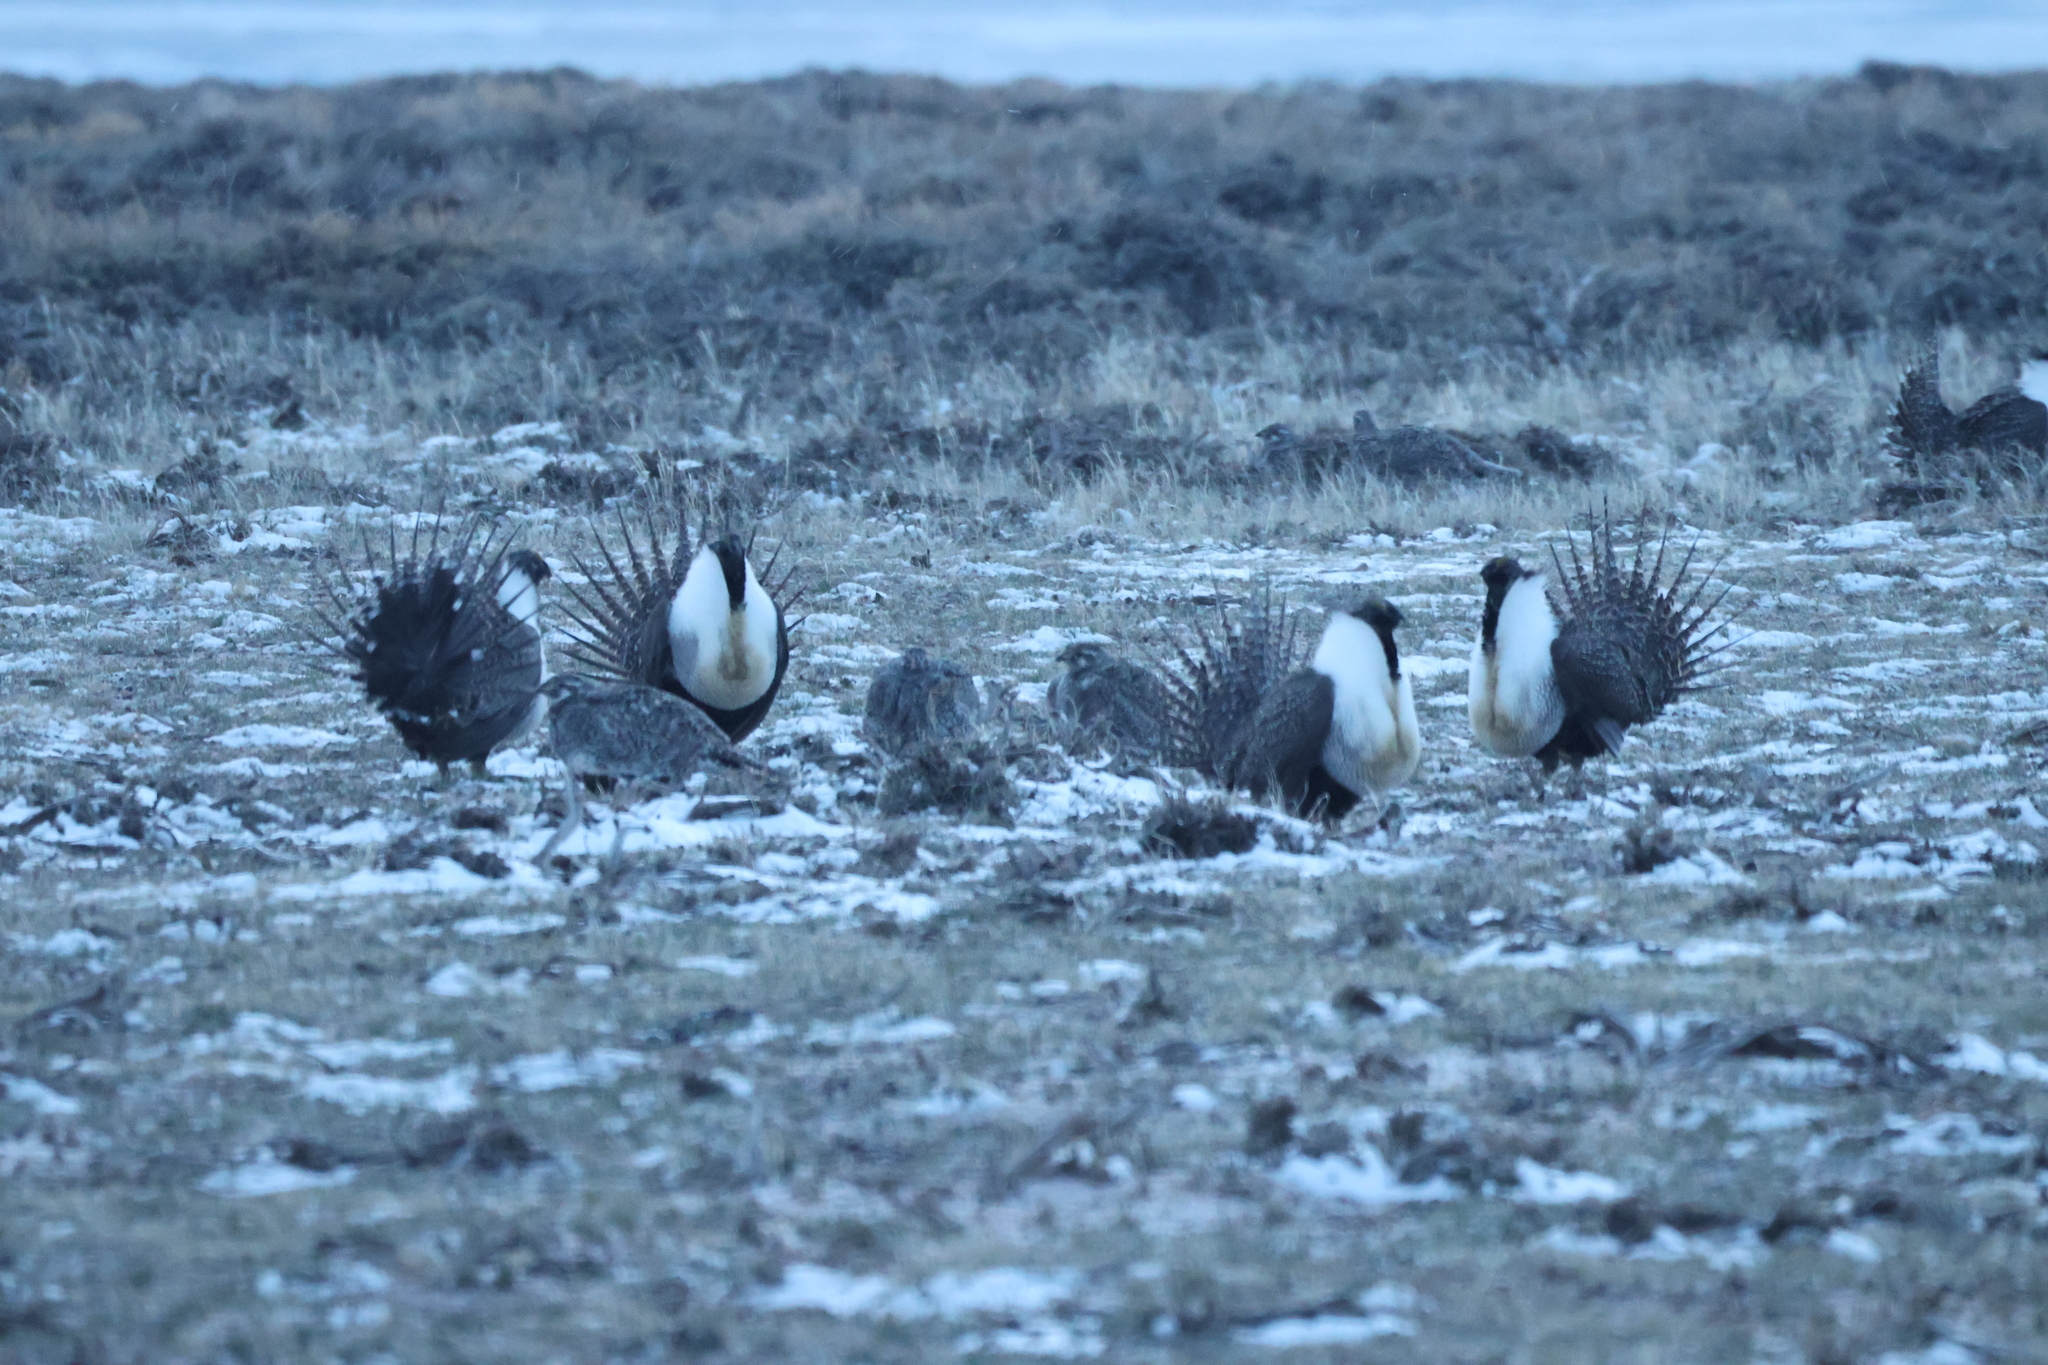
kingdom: Animalia
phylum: Chordata
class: Aves
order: Galliformes
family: Phasianidae
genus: Centrocercus
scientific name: Centrocercus urophasianus
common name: Sage grouse
